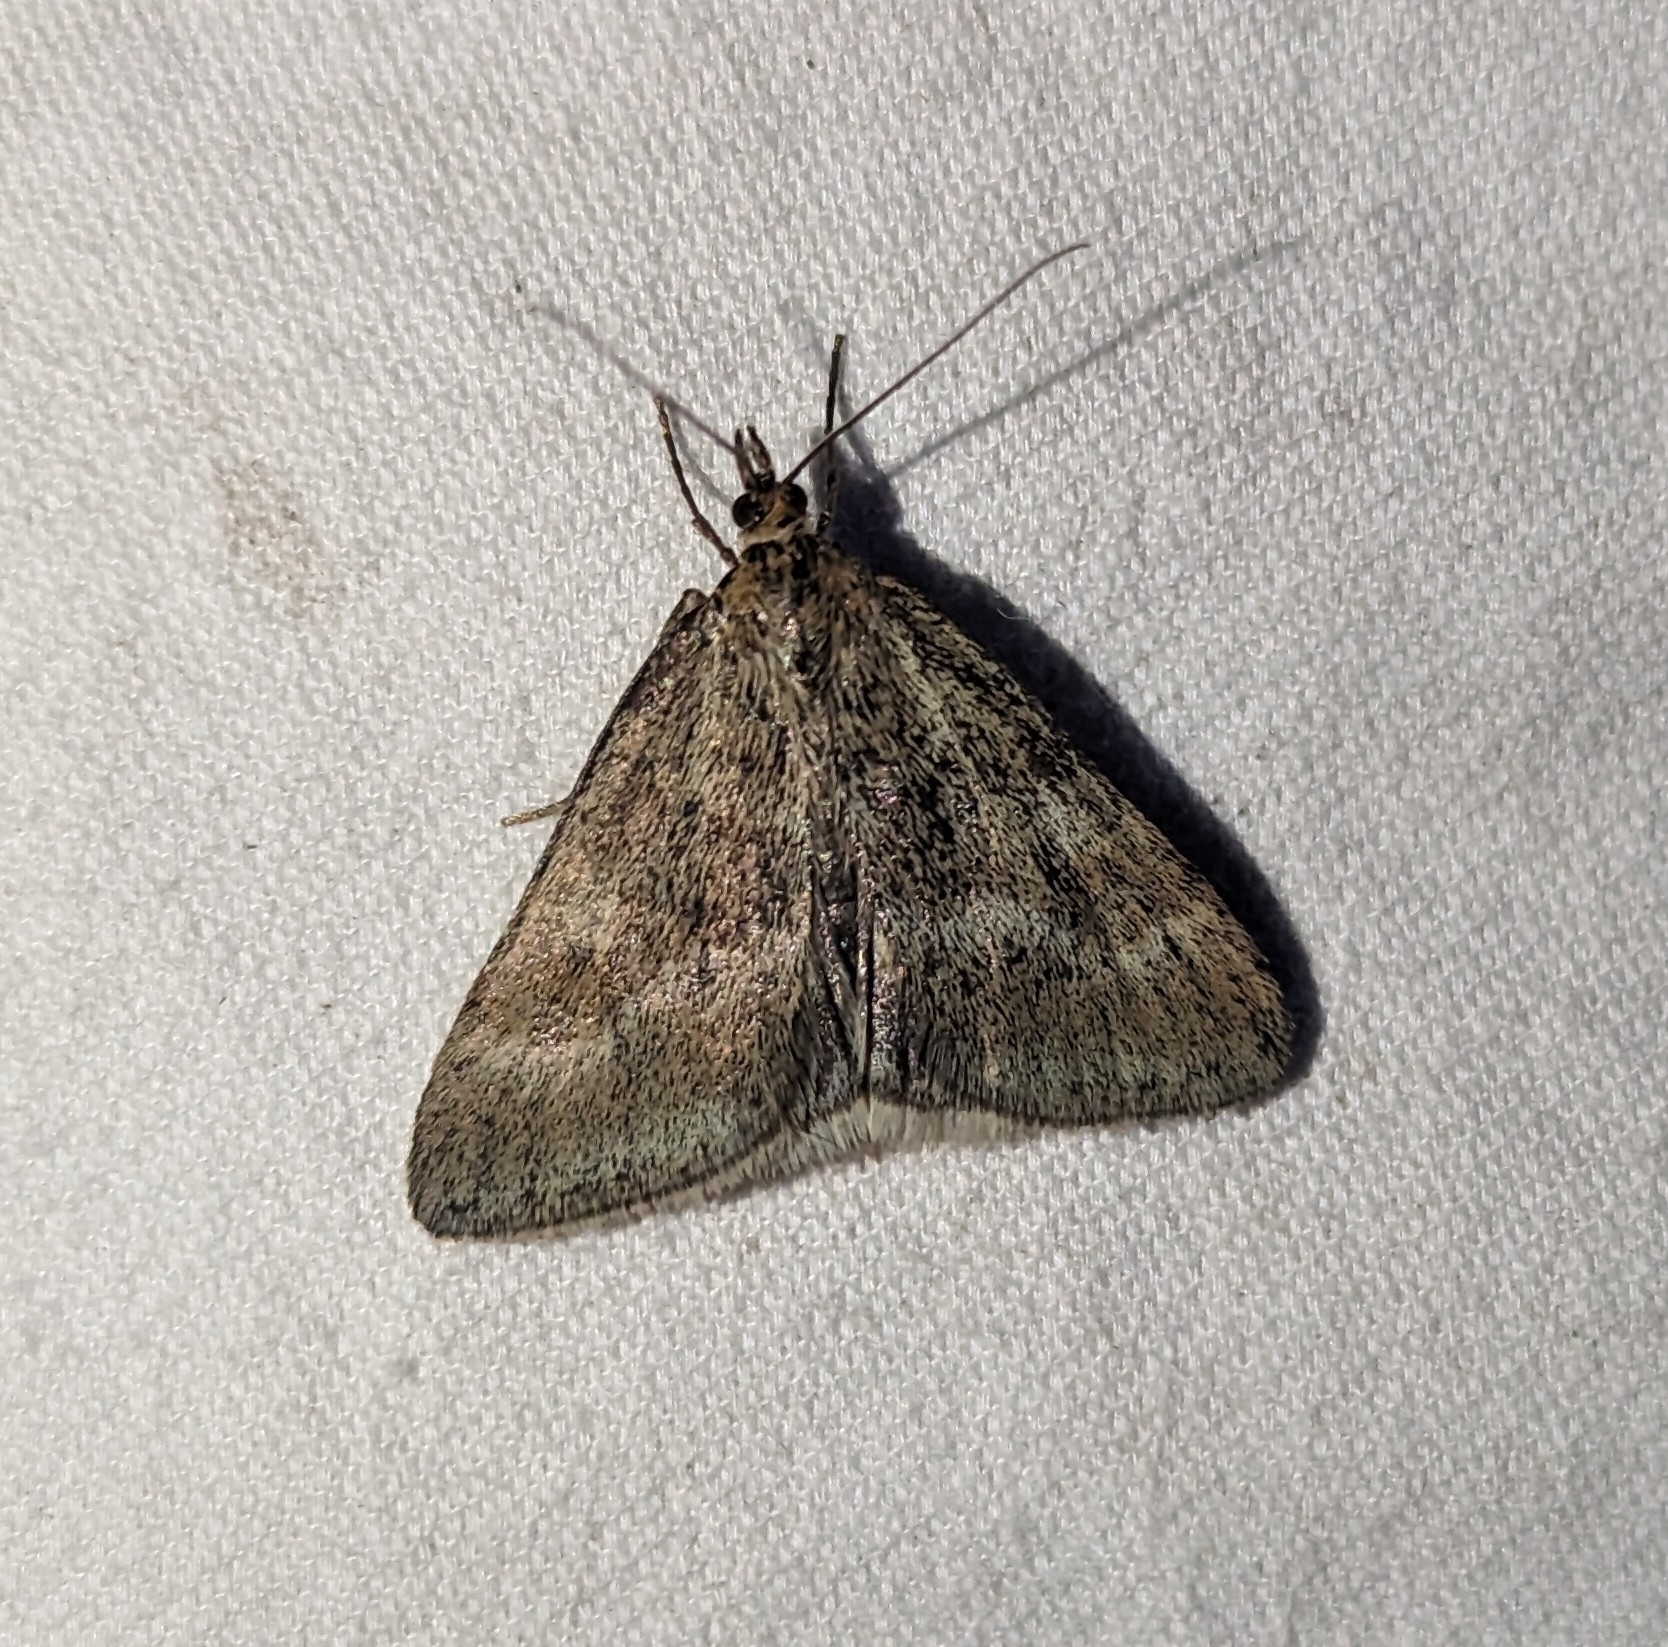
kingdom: Animalia
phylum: Arthropoda
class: Insecta
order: Lepidoptera
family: Crambidae
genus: Pyrausta
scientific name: Pyrausta unifascialis
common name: One-banded pyrausta
